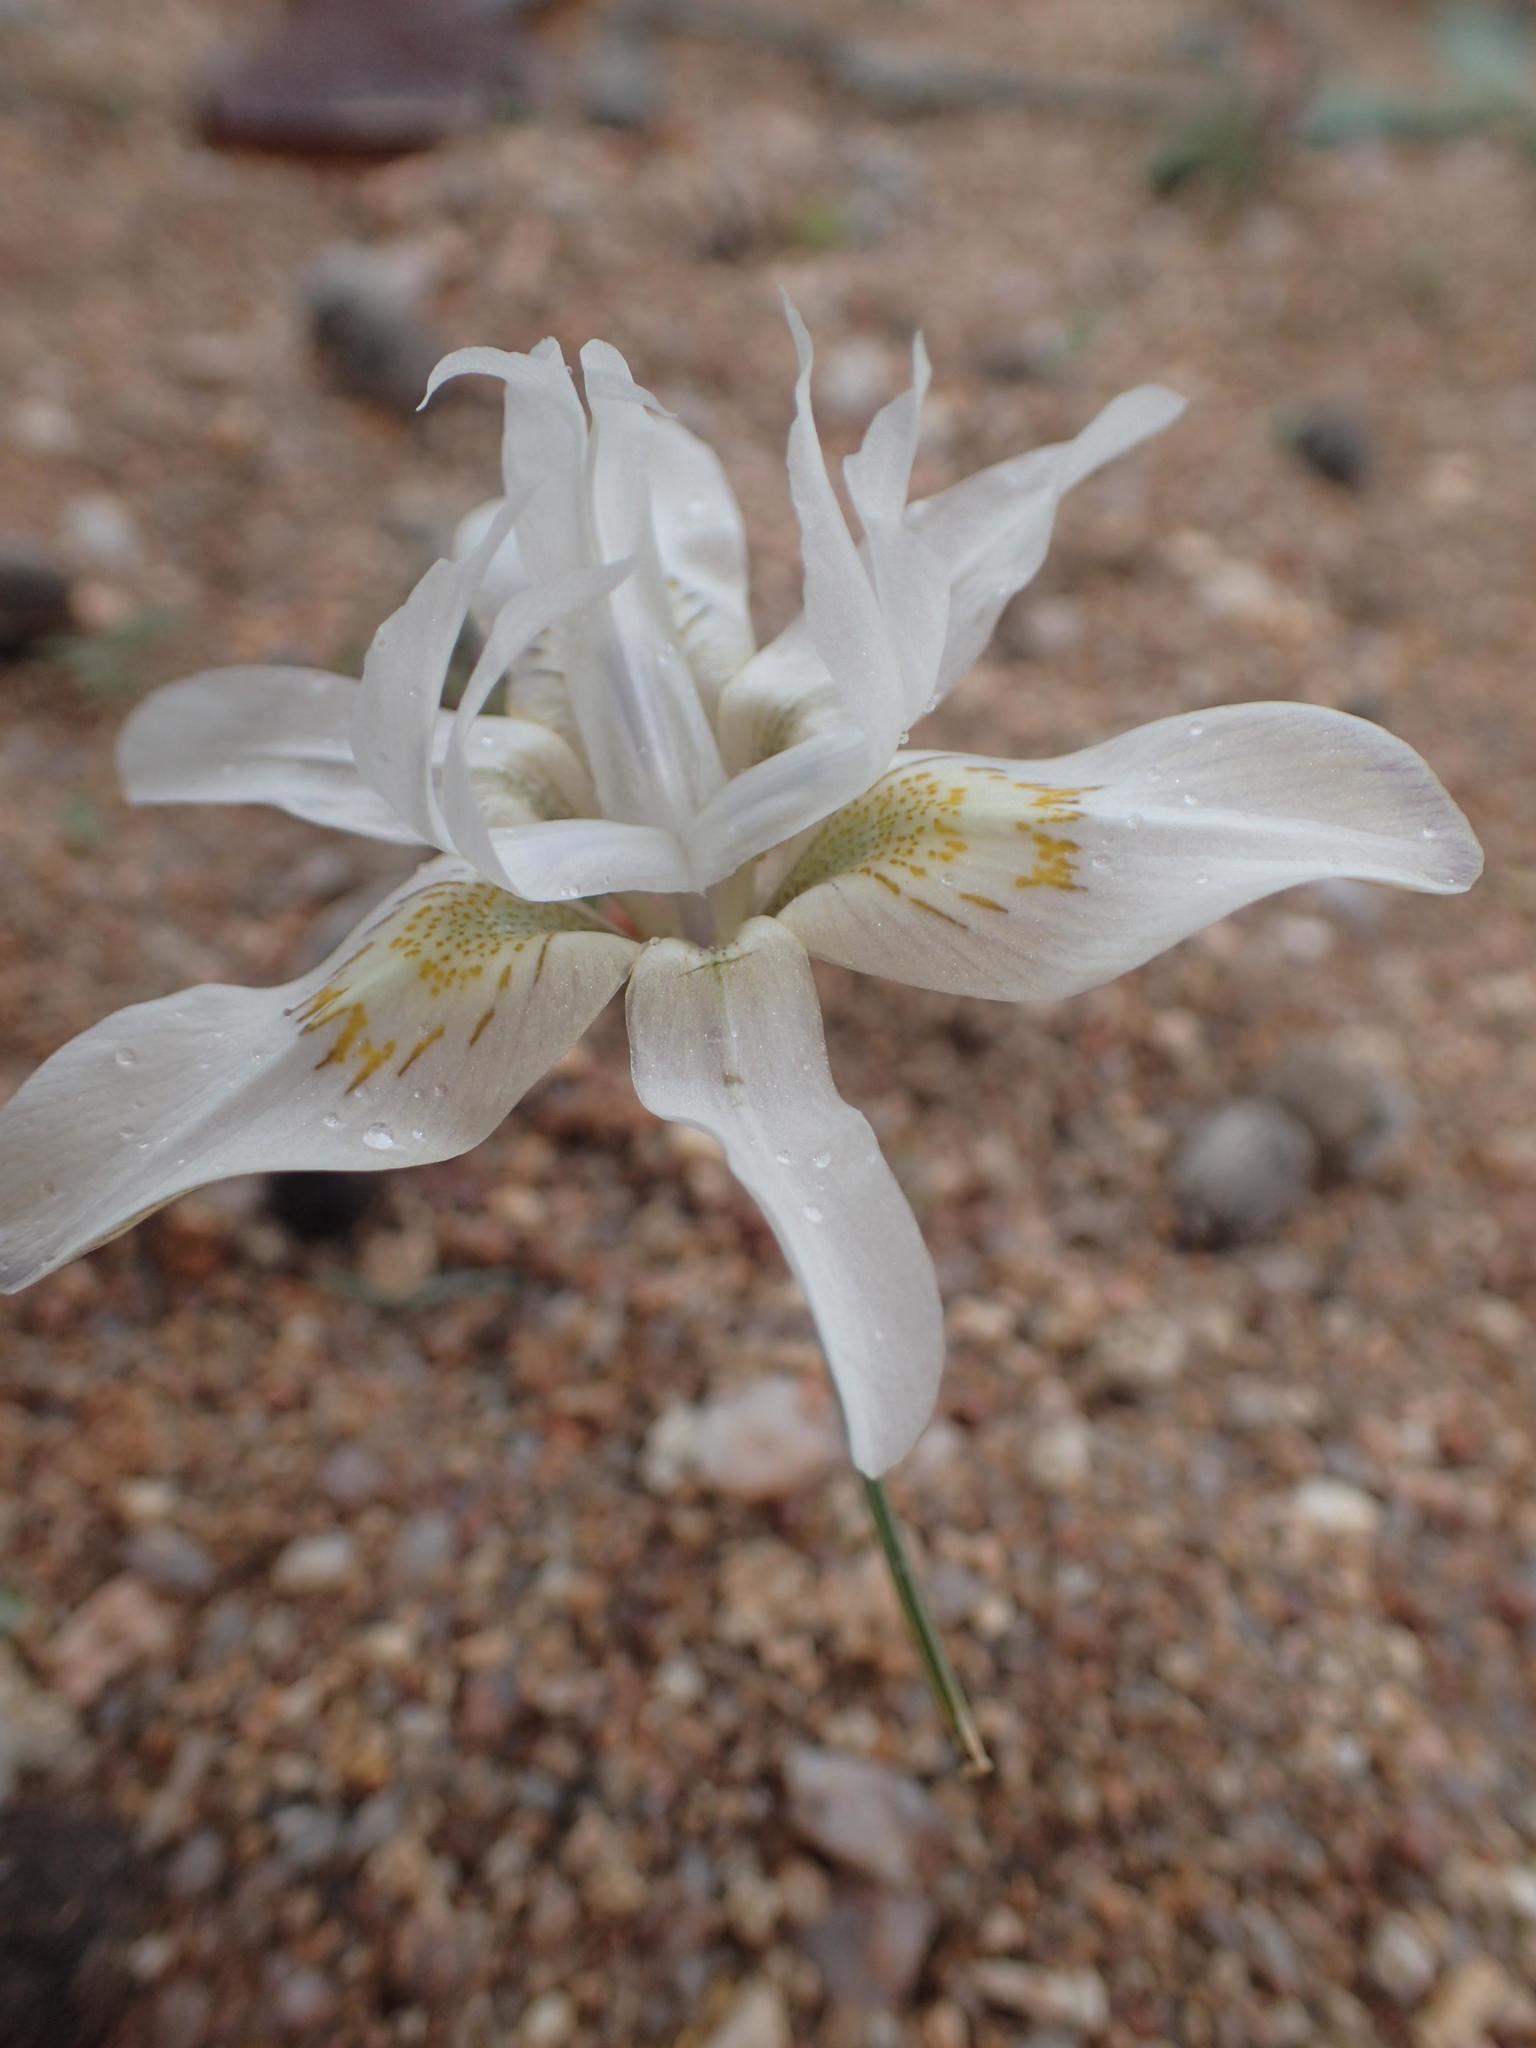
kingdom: Plantae
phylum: Tracheophyta
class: Liliopsida
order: Asparagales
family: Iridaceae
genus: Moraea
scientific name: Moraea filicaulis
